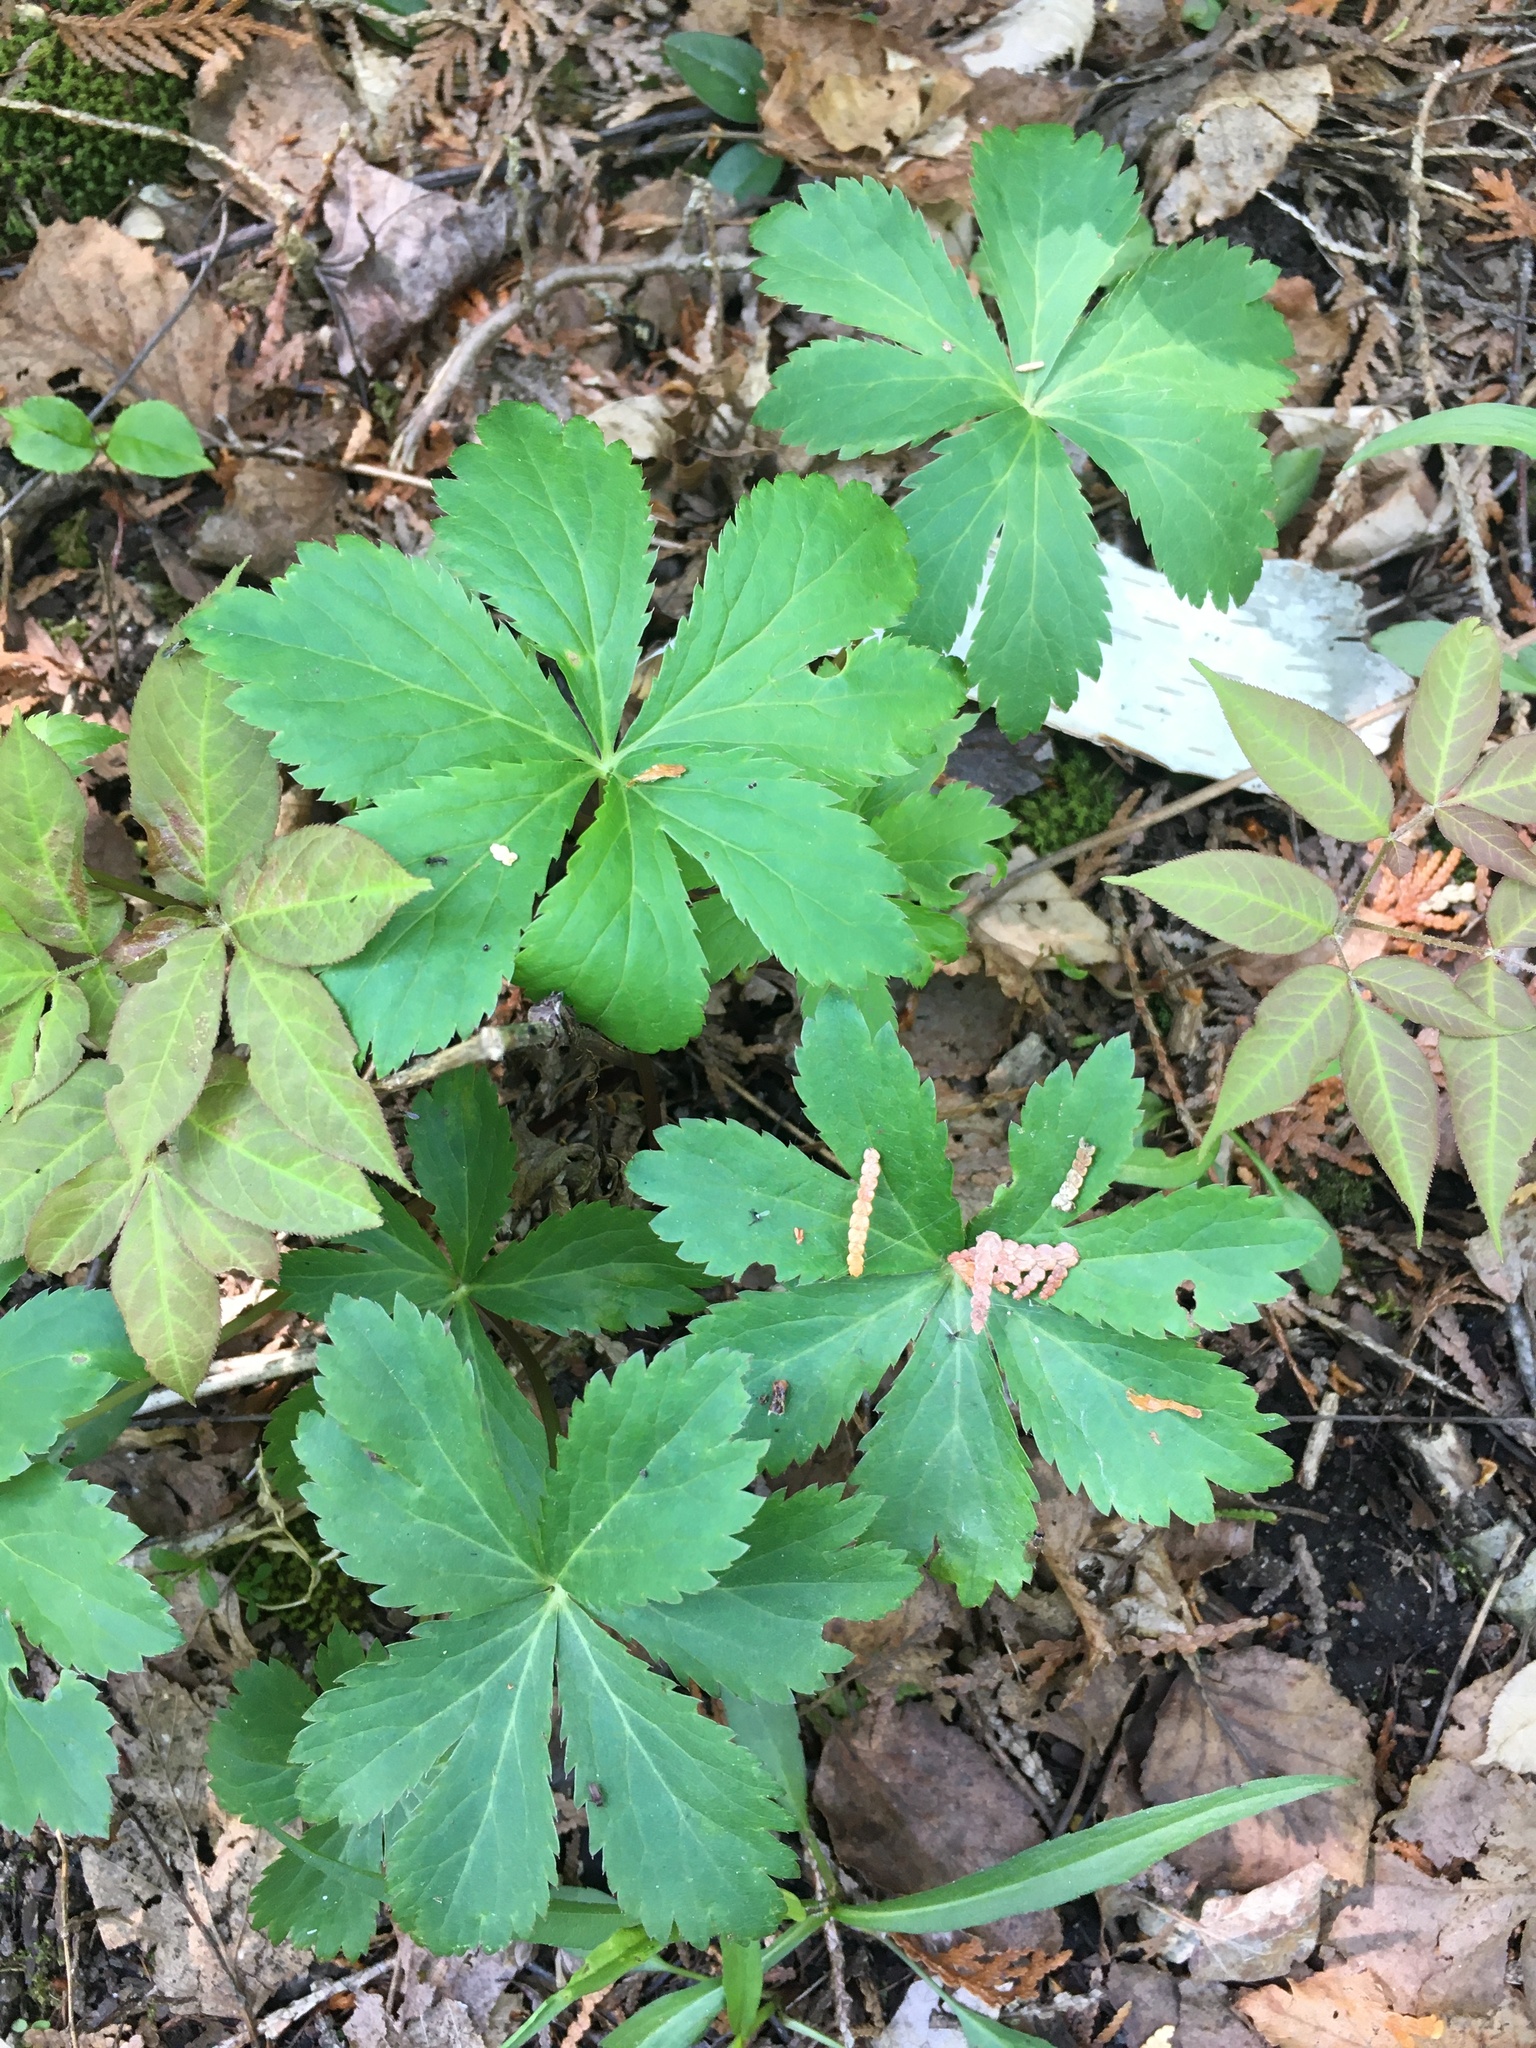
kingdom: Plantae
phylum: Tracheophyta
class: Magnoliopsida
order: Apiales
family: Apiaceae
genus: Sanicula
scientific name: Sanicula marilandica
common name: Black snakeroot
